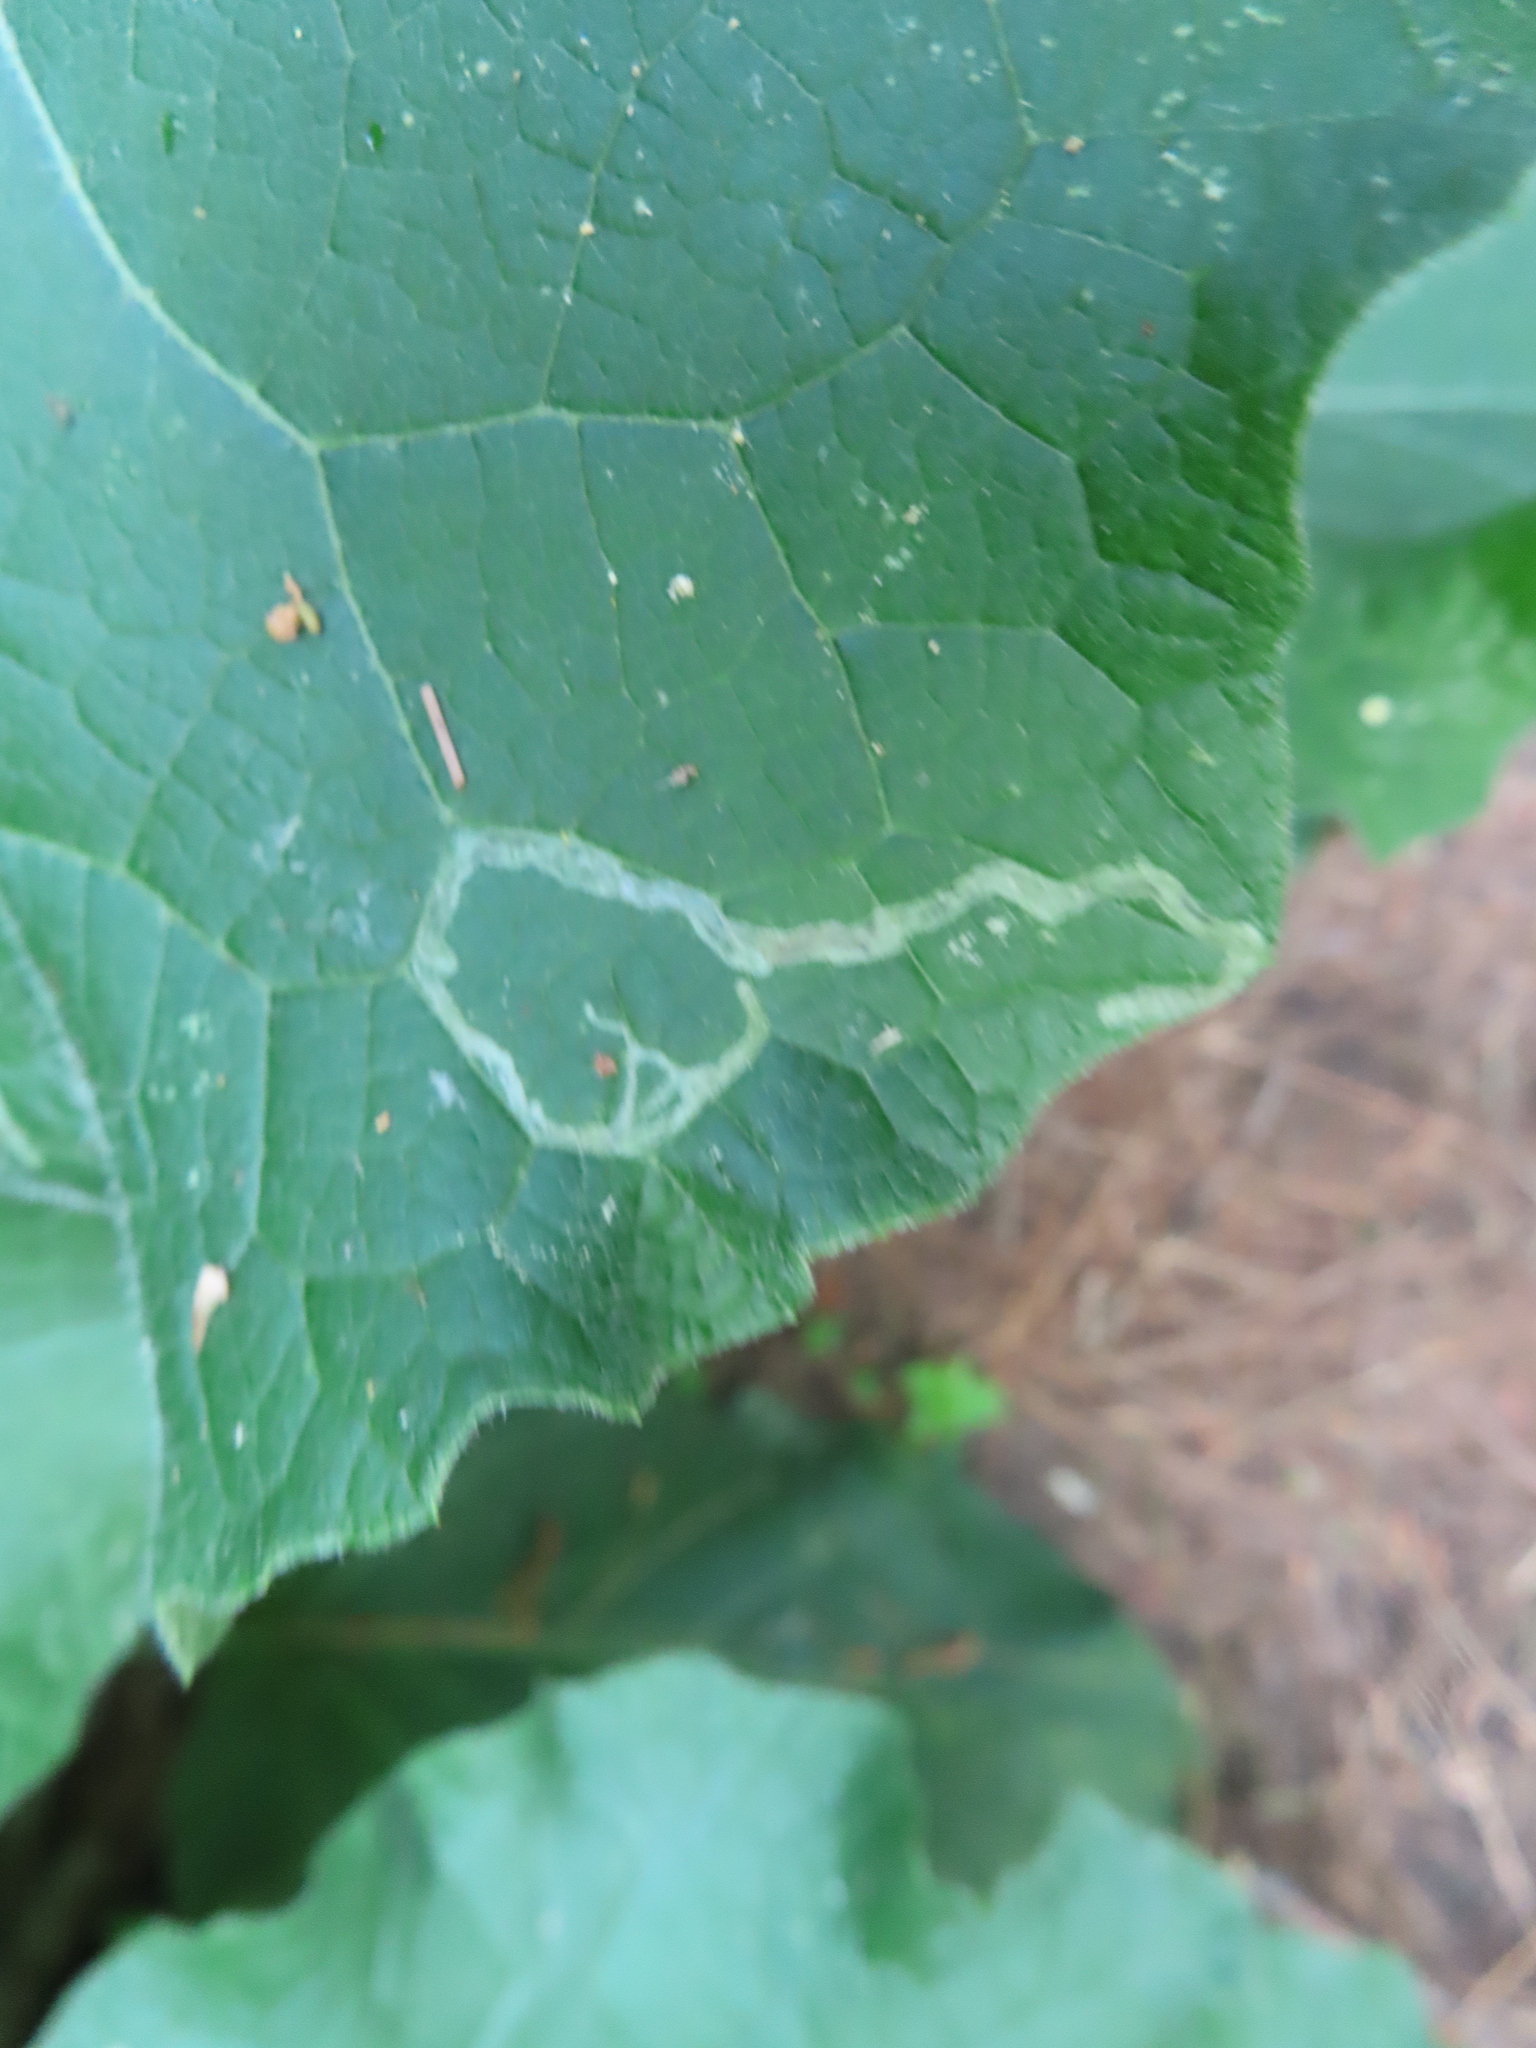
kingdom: Animalia
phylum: Arthropoda
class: Insecta
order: Diptera
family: Agromyzidae
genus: Liriomyza
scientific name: Liriomyza arctii
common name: Burdock leafminer
